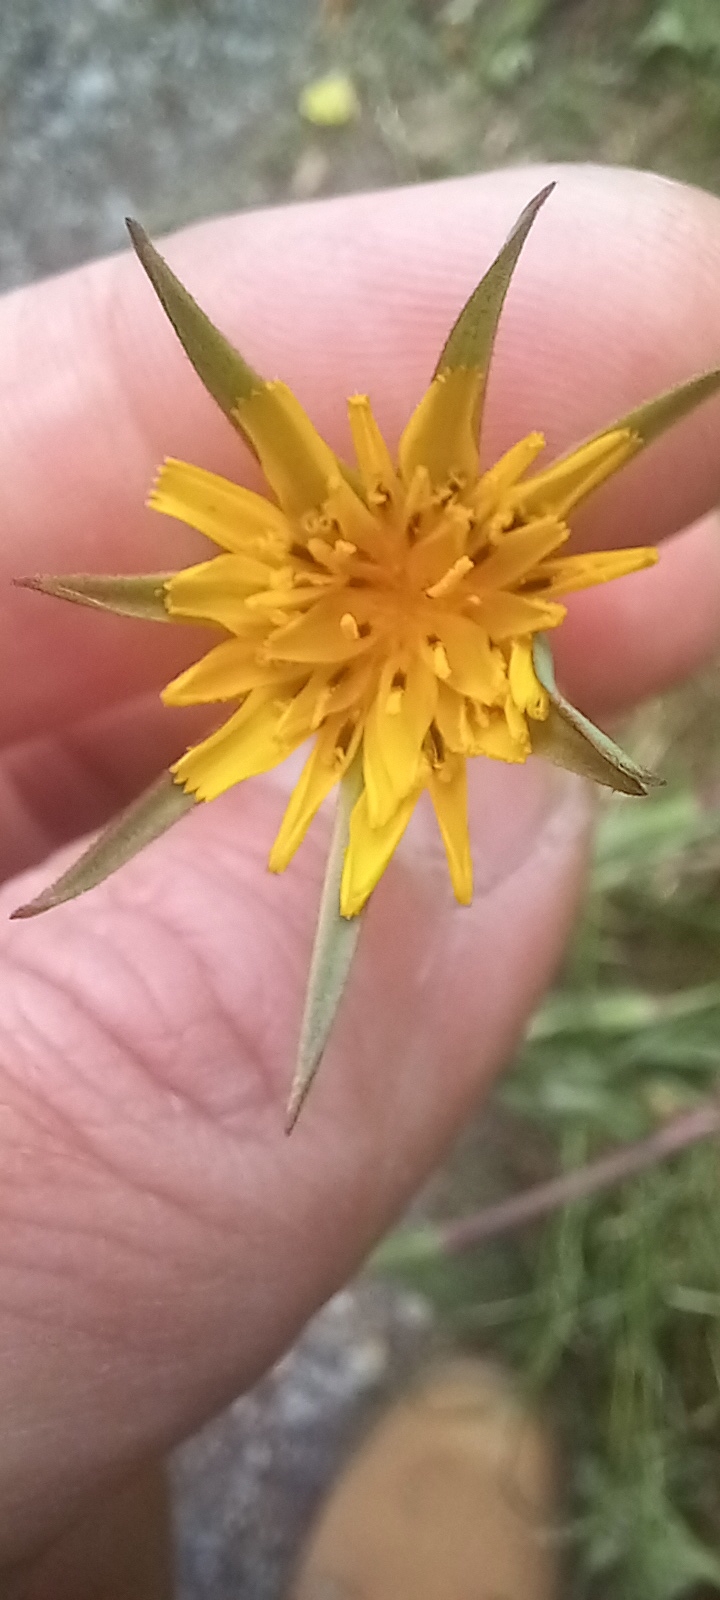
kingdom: Plantae
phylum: Tracheophyta
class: Magnoliopsida
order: Asterales
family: Asteraceae
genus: Tragopogon
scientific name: Tragopogon pratensis
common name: Goat's-beard
